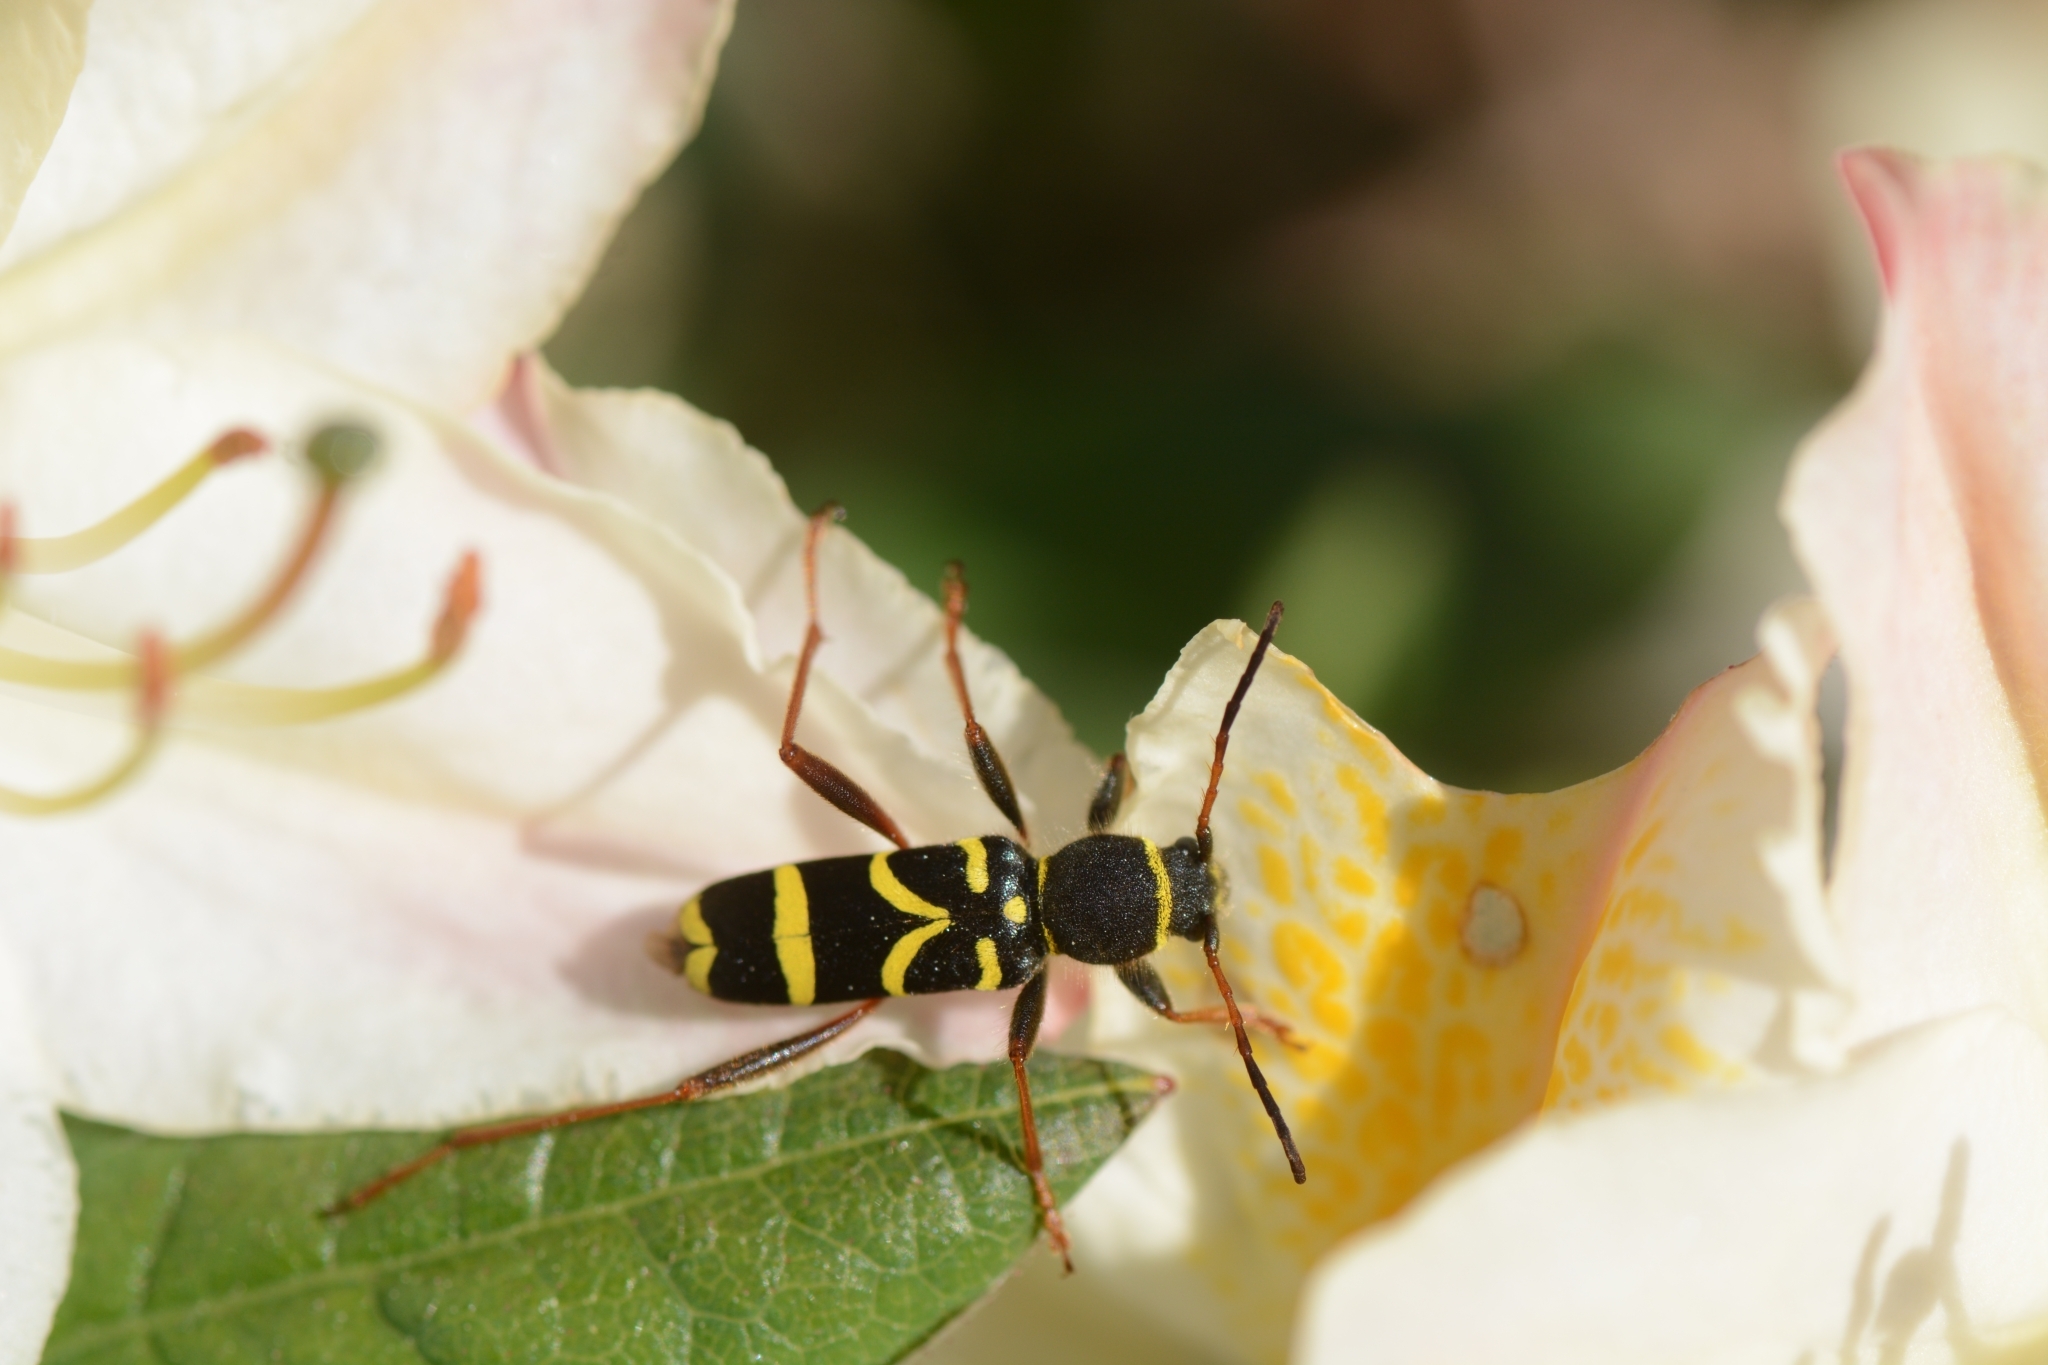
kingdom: Animalia
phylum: Arthropoda
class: Insecta
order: Coleoptera
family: Cerambycidae
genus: Clytus
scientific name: Clytus arietis
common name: Wasp beetle
